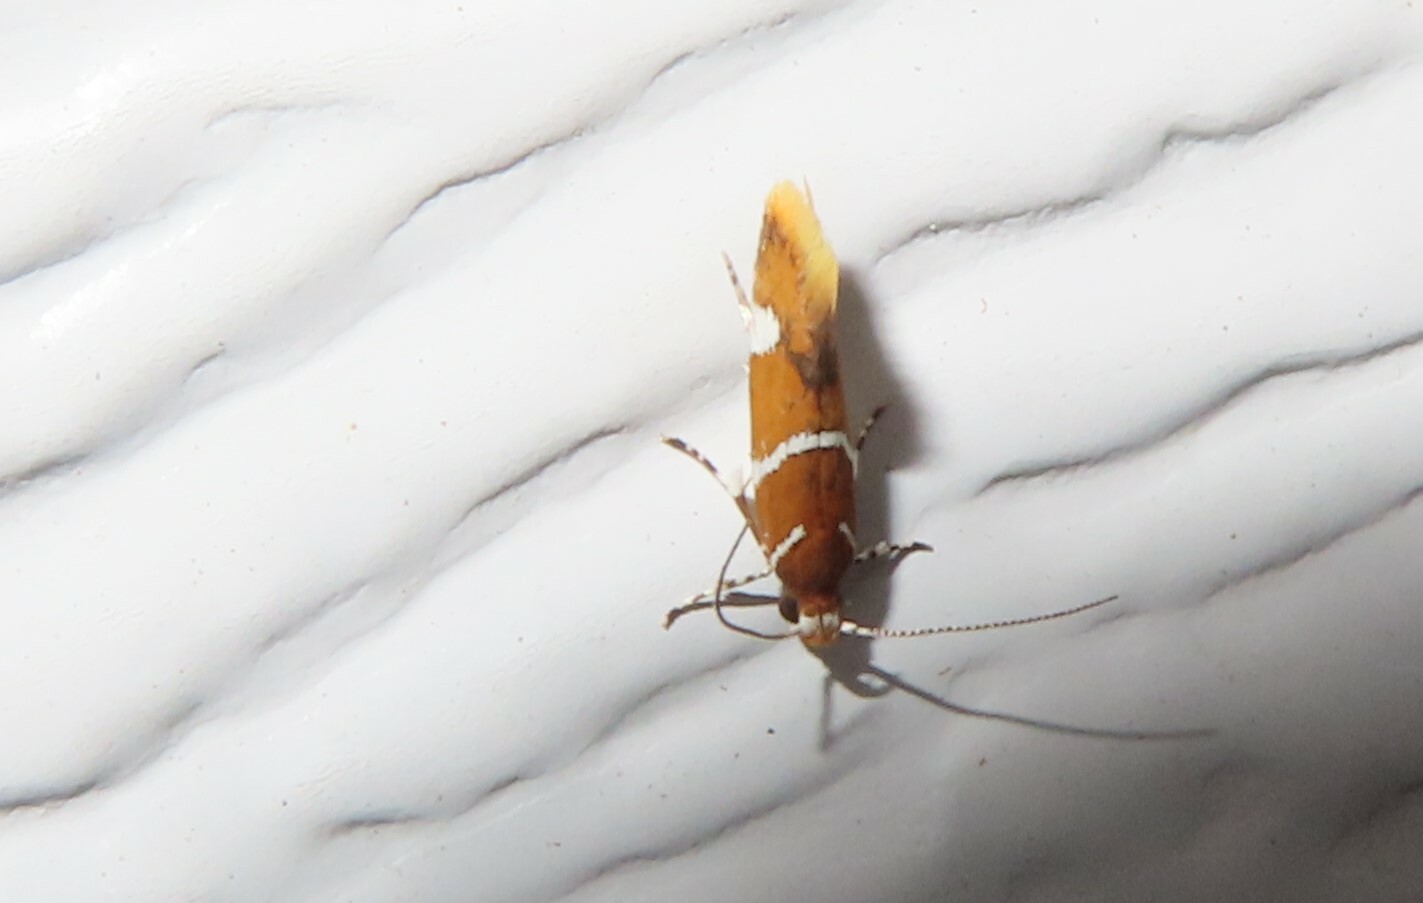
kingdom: Animalia
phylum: Arthropoda
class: Insecta
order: Lepidoptera
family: Oecophoridae
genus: Promalactis
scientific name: Promalactis suzukiella
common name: Moth
